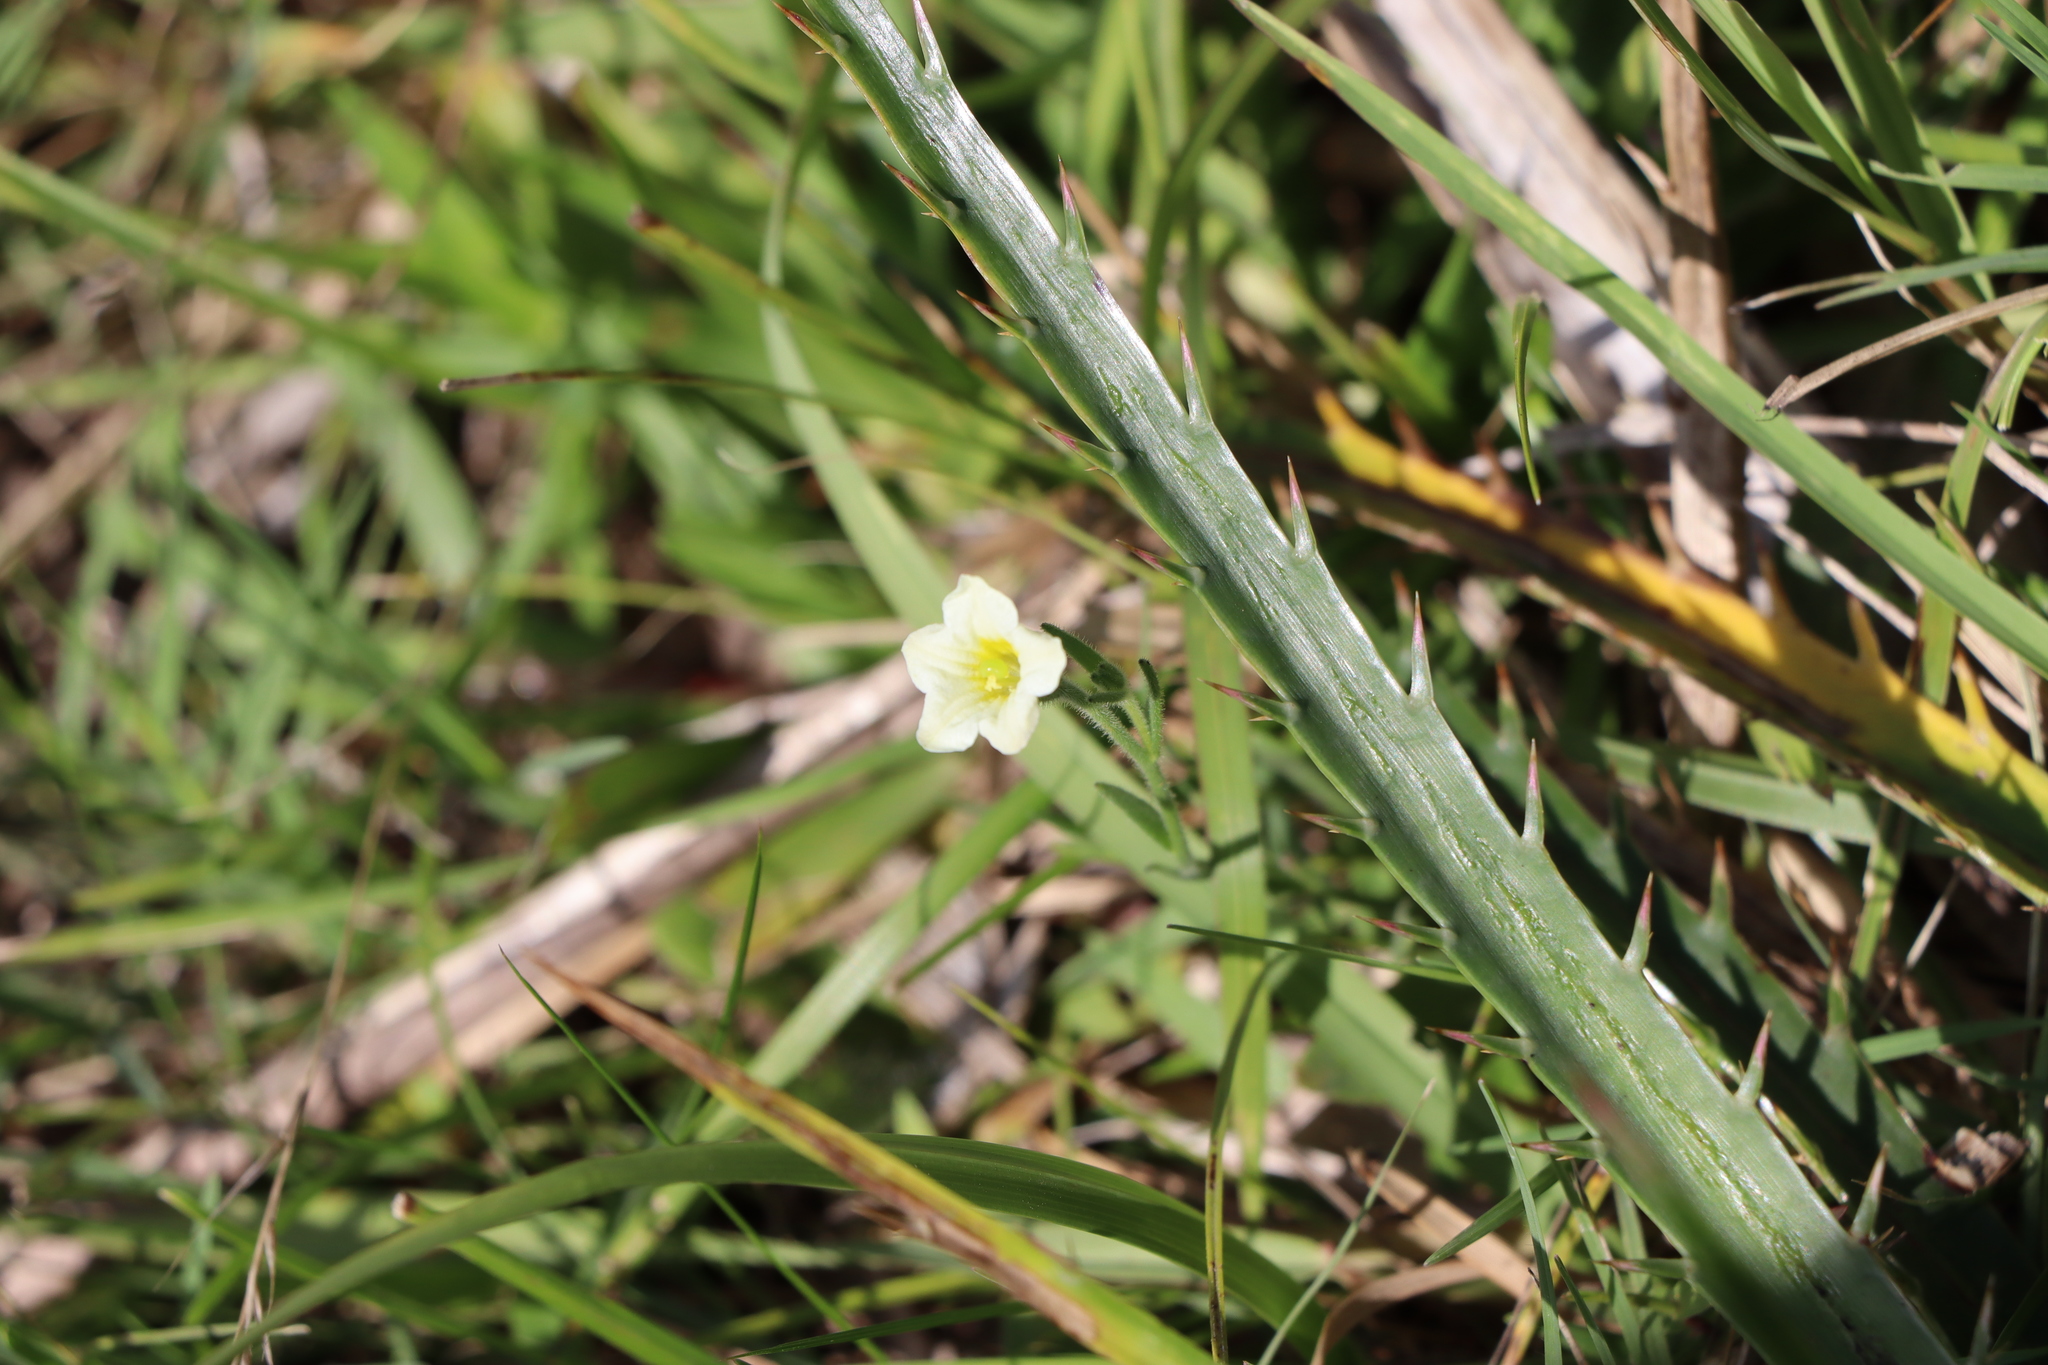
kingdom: Plantae
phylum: Tracheophyta
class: Magnoliopsida
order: Solanales
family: Solanaceae
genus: Salpiglossis
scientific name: Salpiglossis anomala
